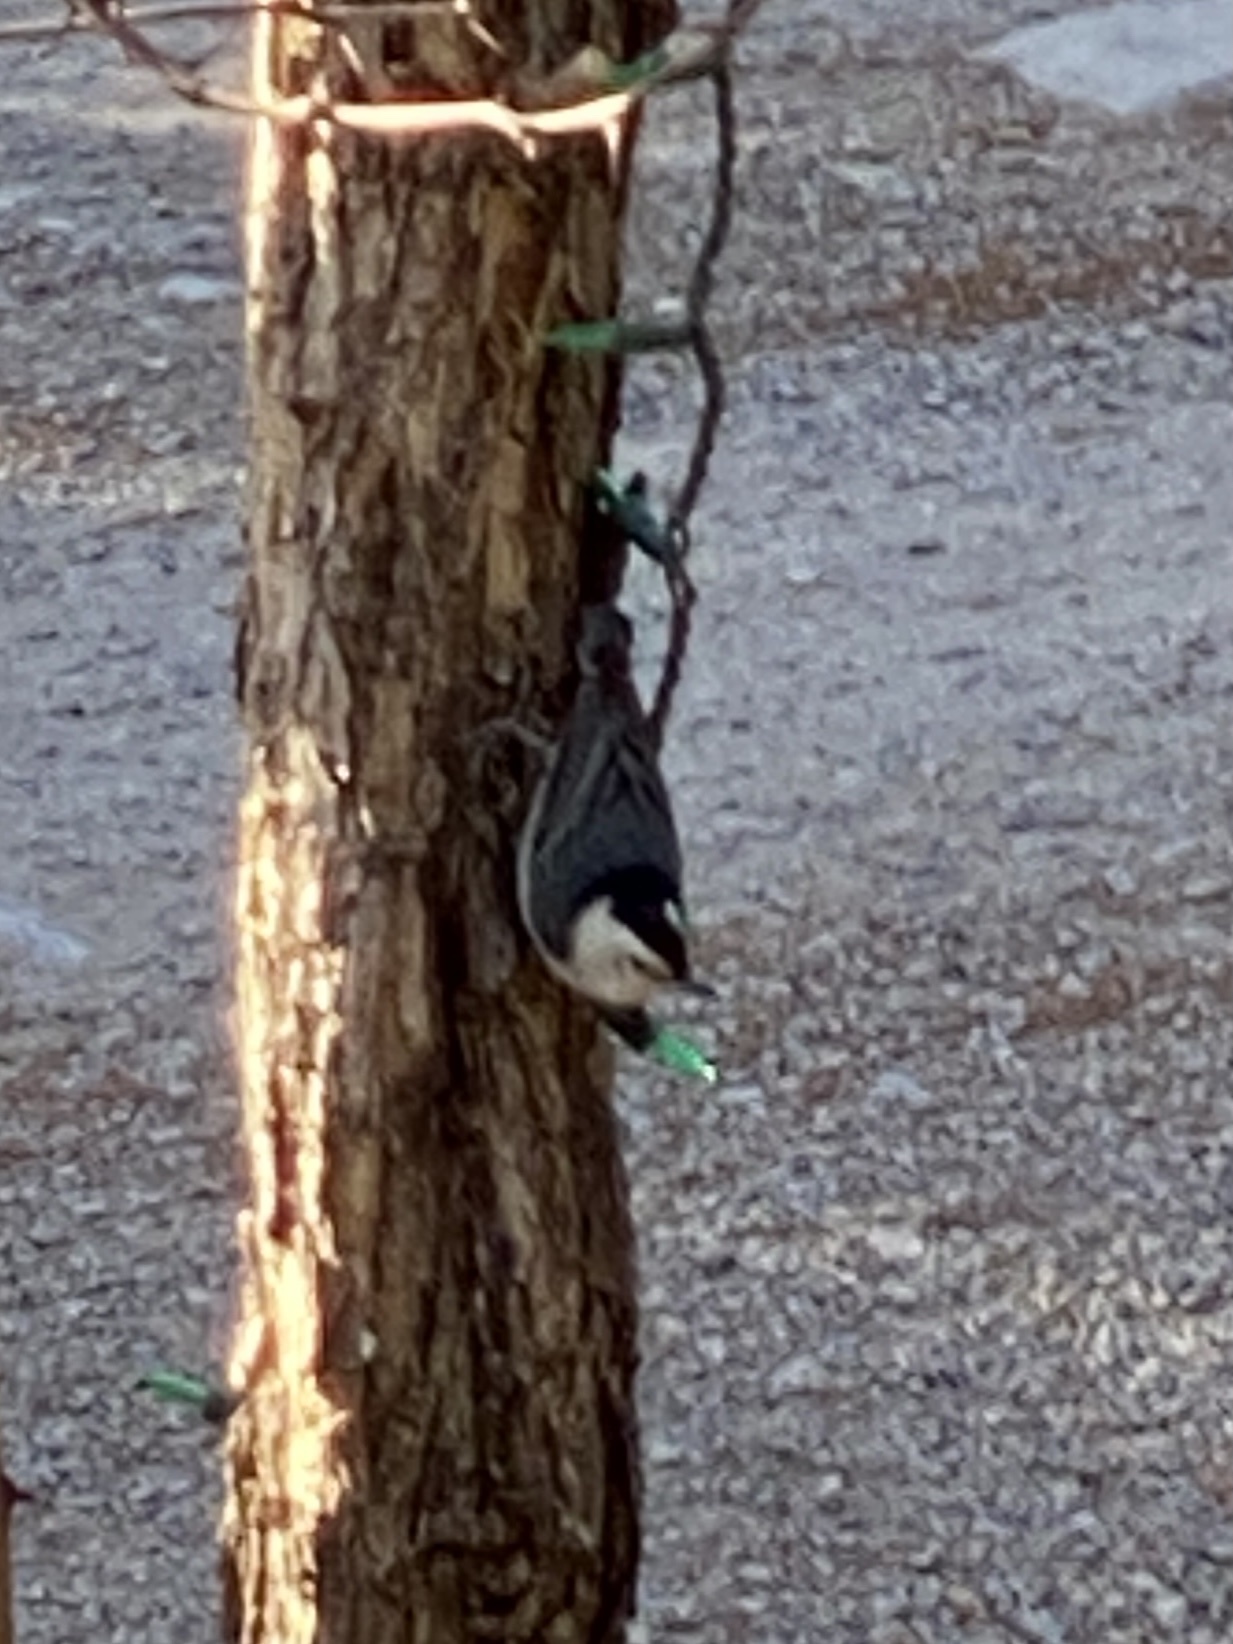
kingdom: Animalia
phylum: Chordata
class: Aves
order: Passeriformes
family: Sittidae
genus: Sitta
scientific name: Sitta carolinensis
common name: White-breasted nuthatch
